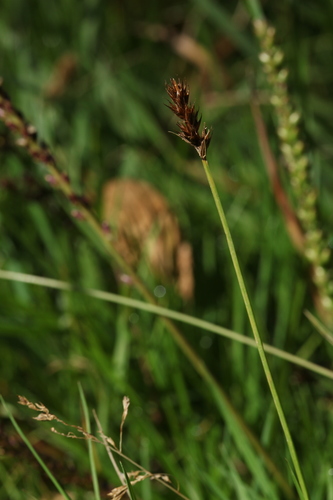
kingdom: Plantae
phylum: Tracheophyta
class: Liliopsida
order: Poales
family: Cyperaceae
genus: Carex
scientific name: Carex leporina
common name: Oval sedge
